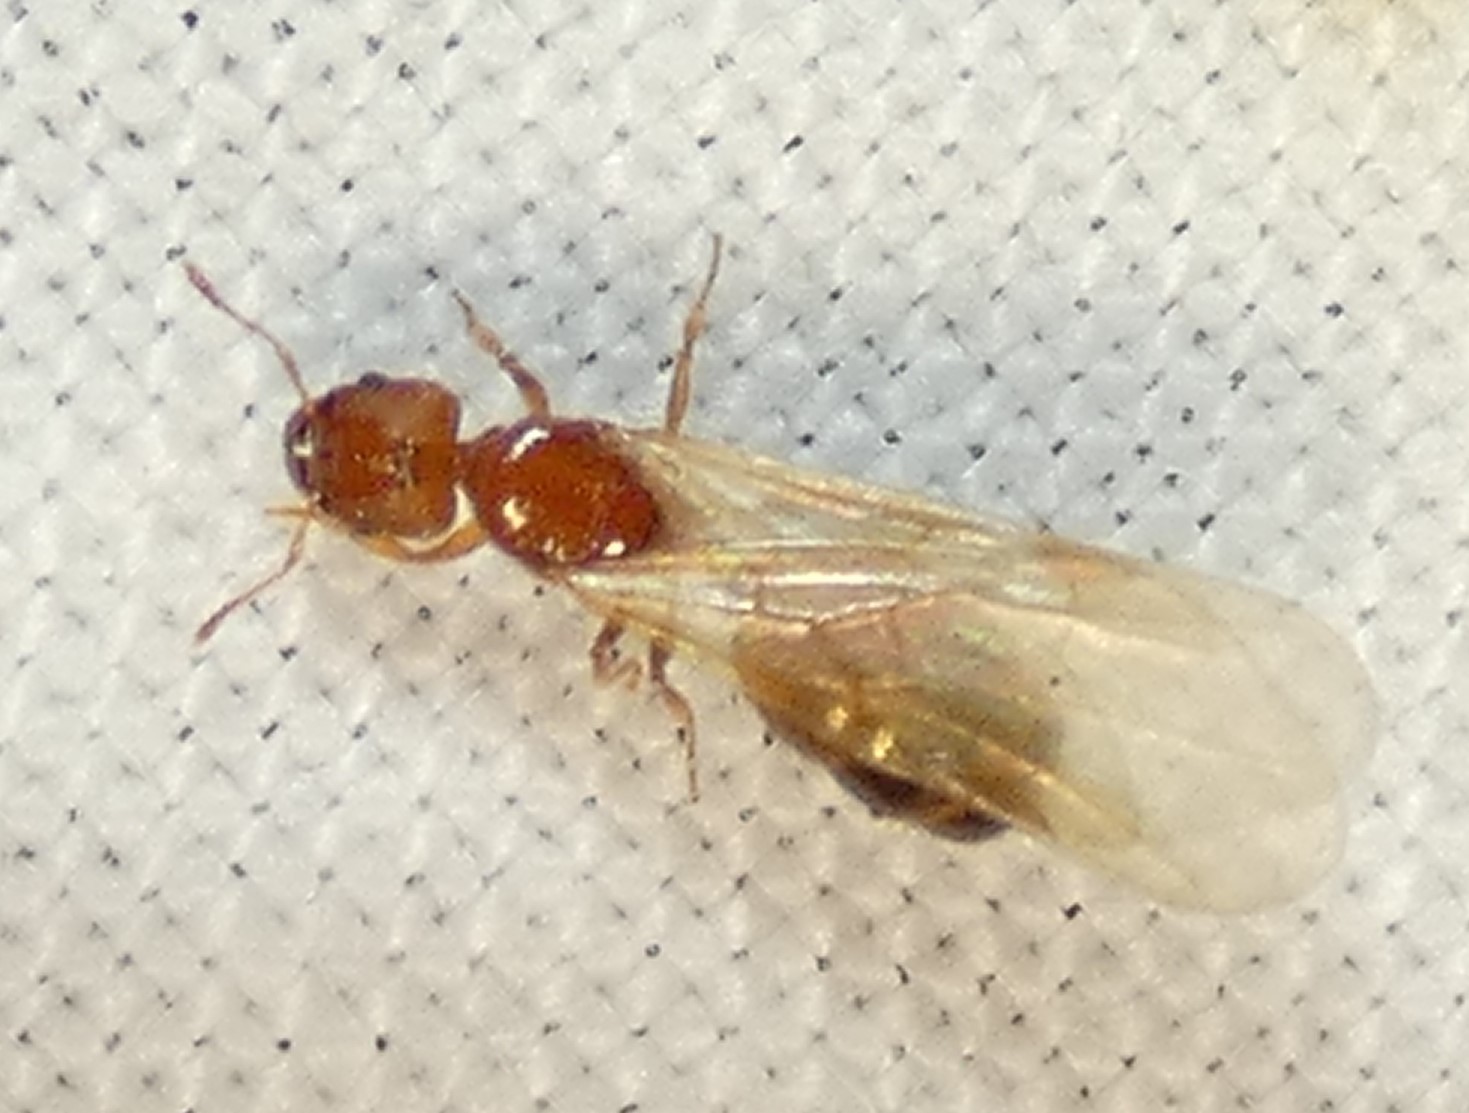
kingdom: Animalia
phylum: Arthropoda
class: Insecta
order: Hymenoptera
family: Formicidae
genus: Pheidole
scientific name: Pheidole bilimeki
